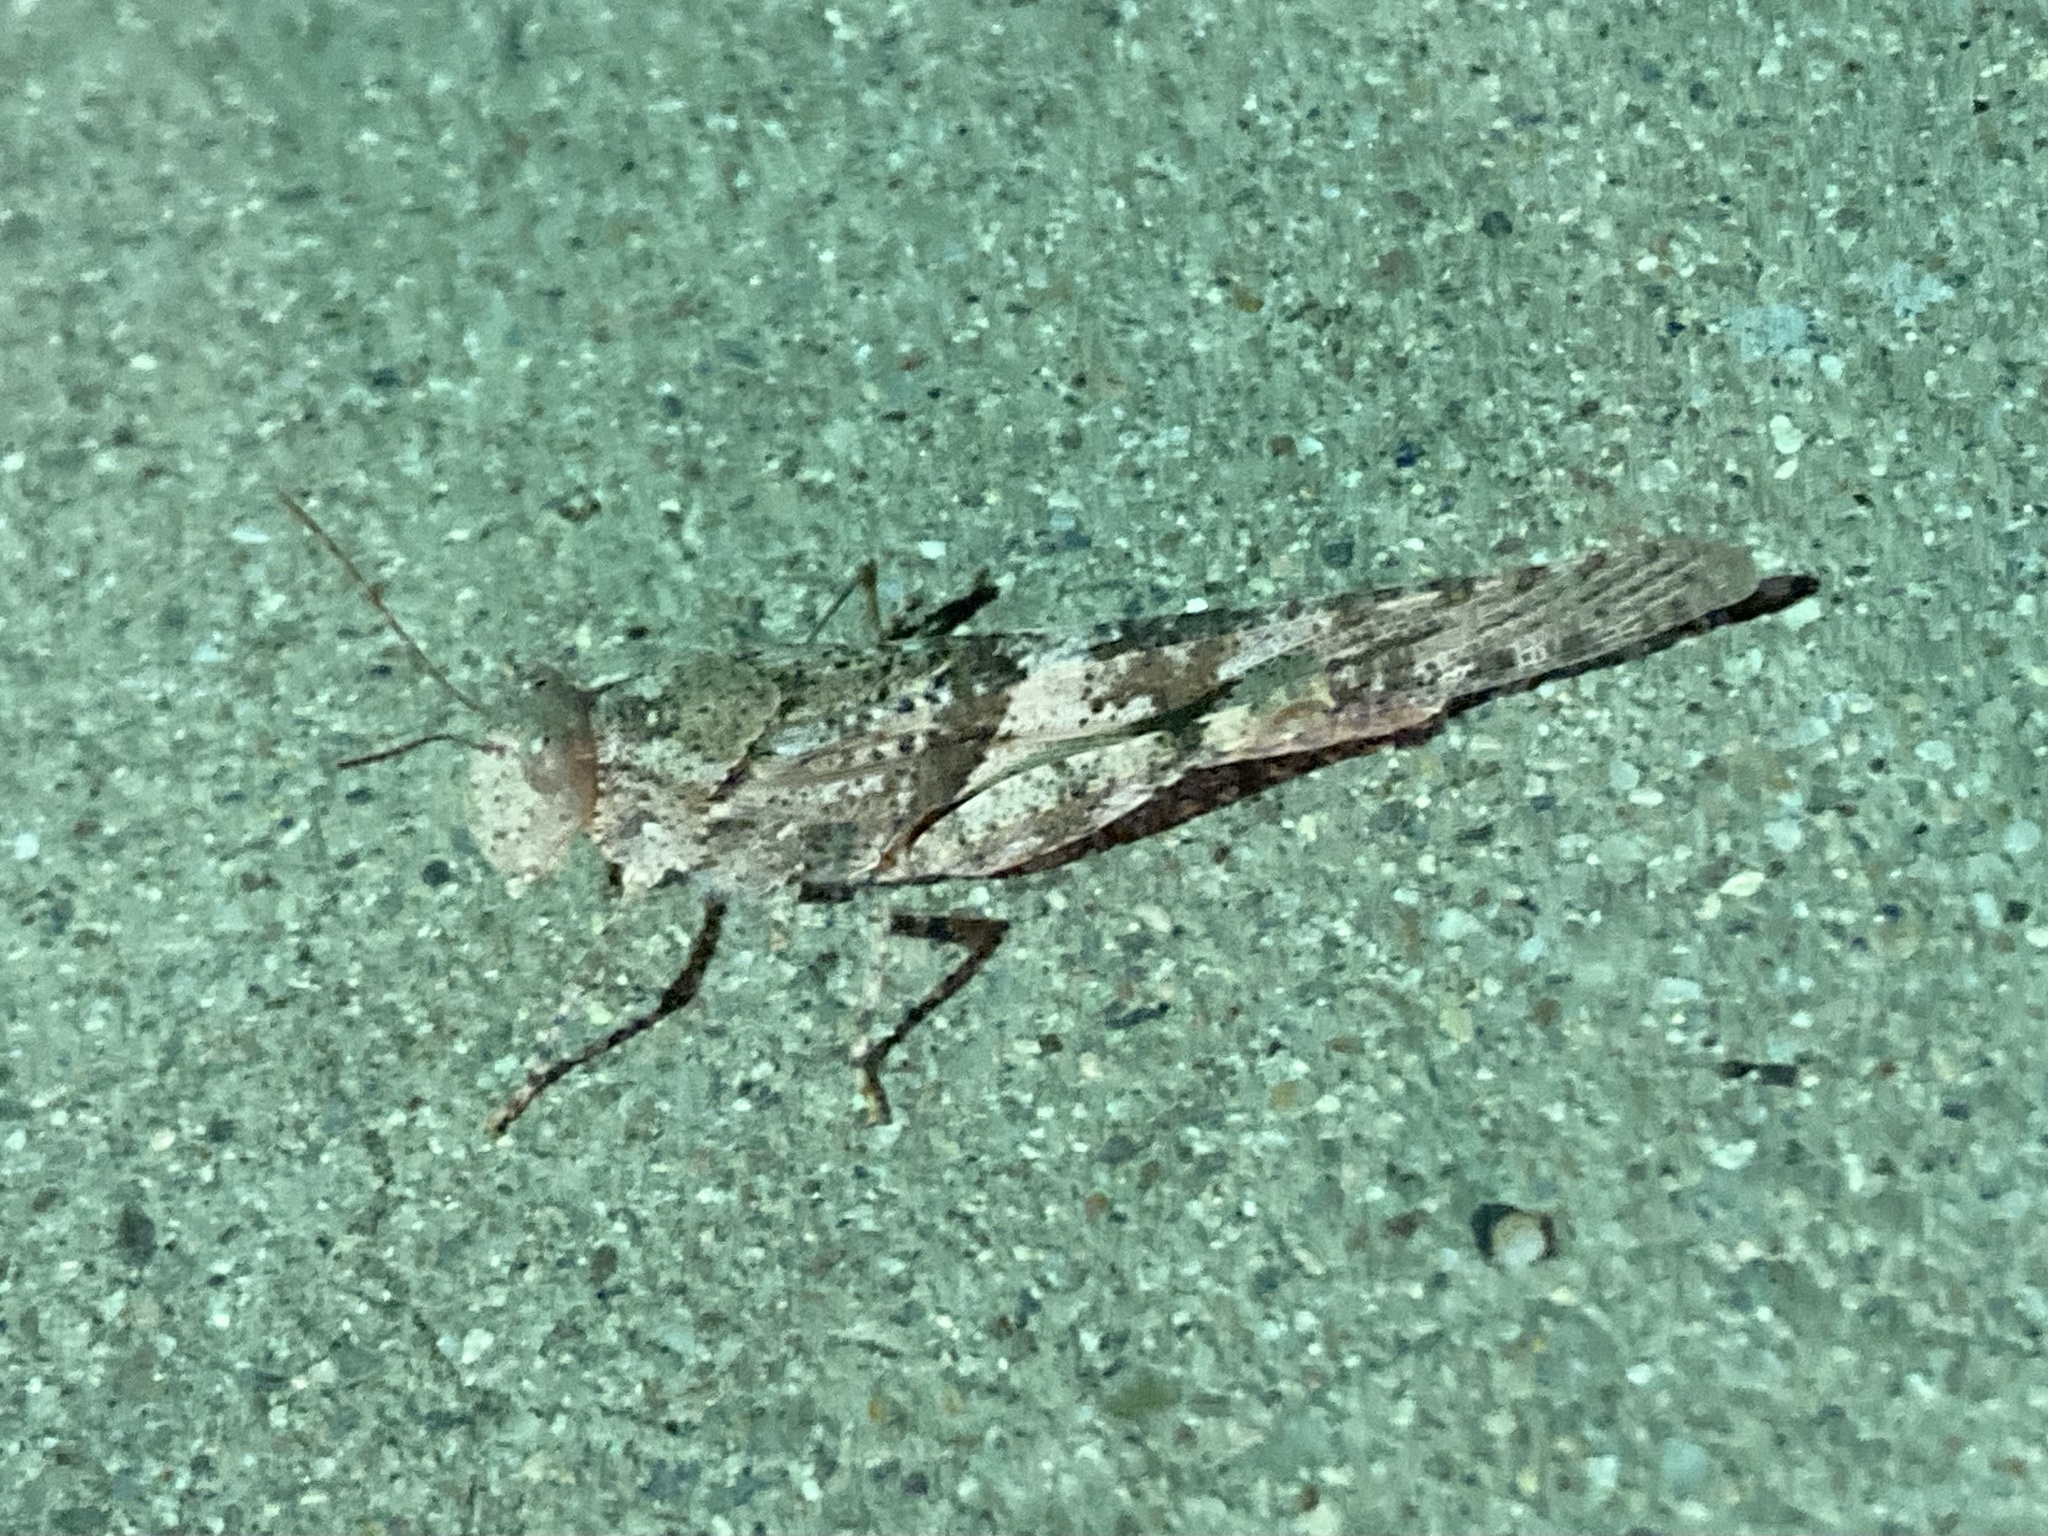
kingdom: Animalia
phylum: Arthropoda
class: Insecta
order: Orthoptera
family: Acrididae
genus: Trimerotropis
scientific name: Trimerotropis pallidipennis
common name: Pallid-winged grasshopper
